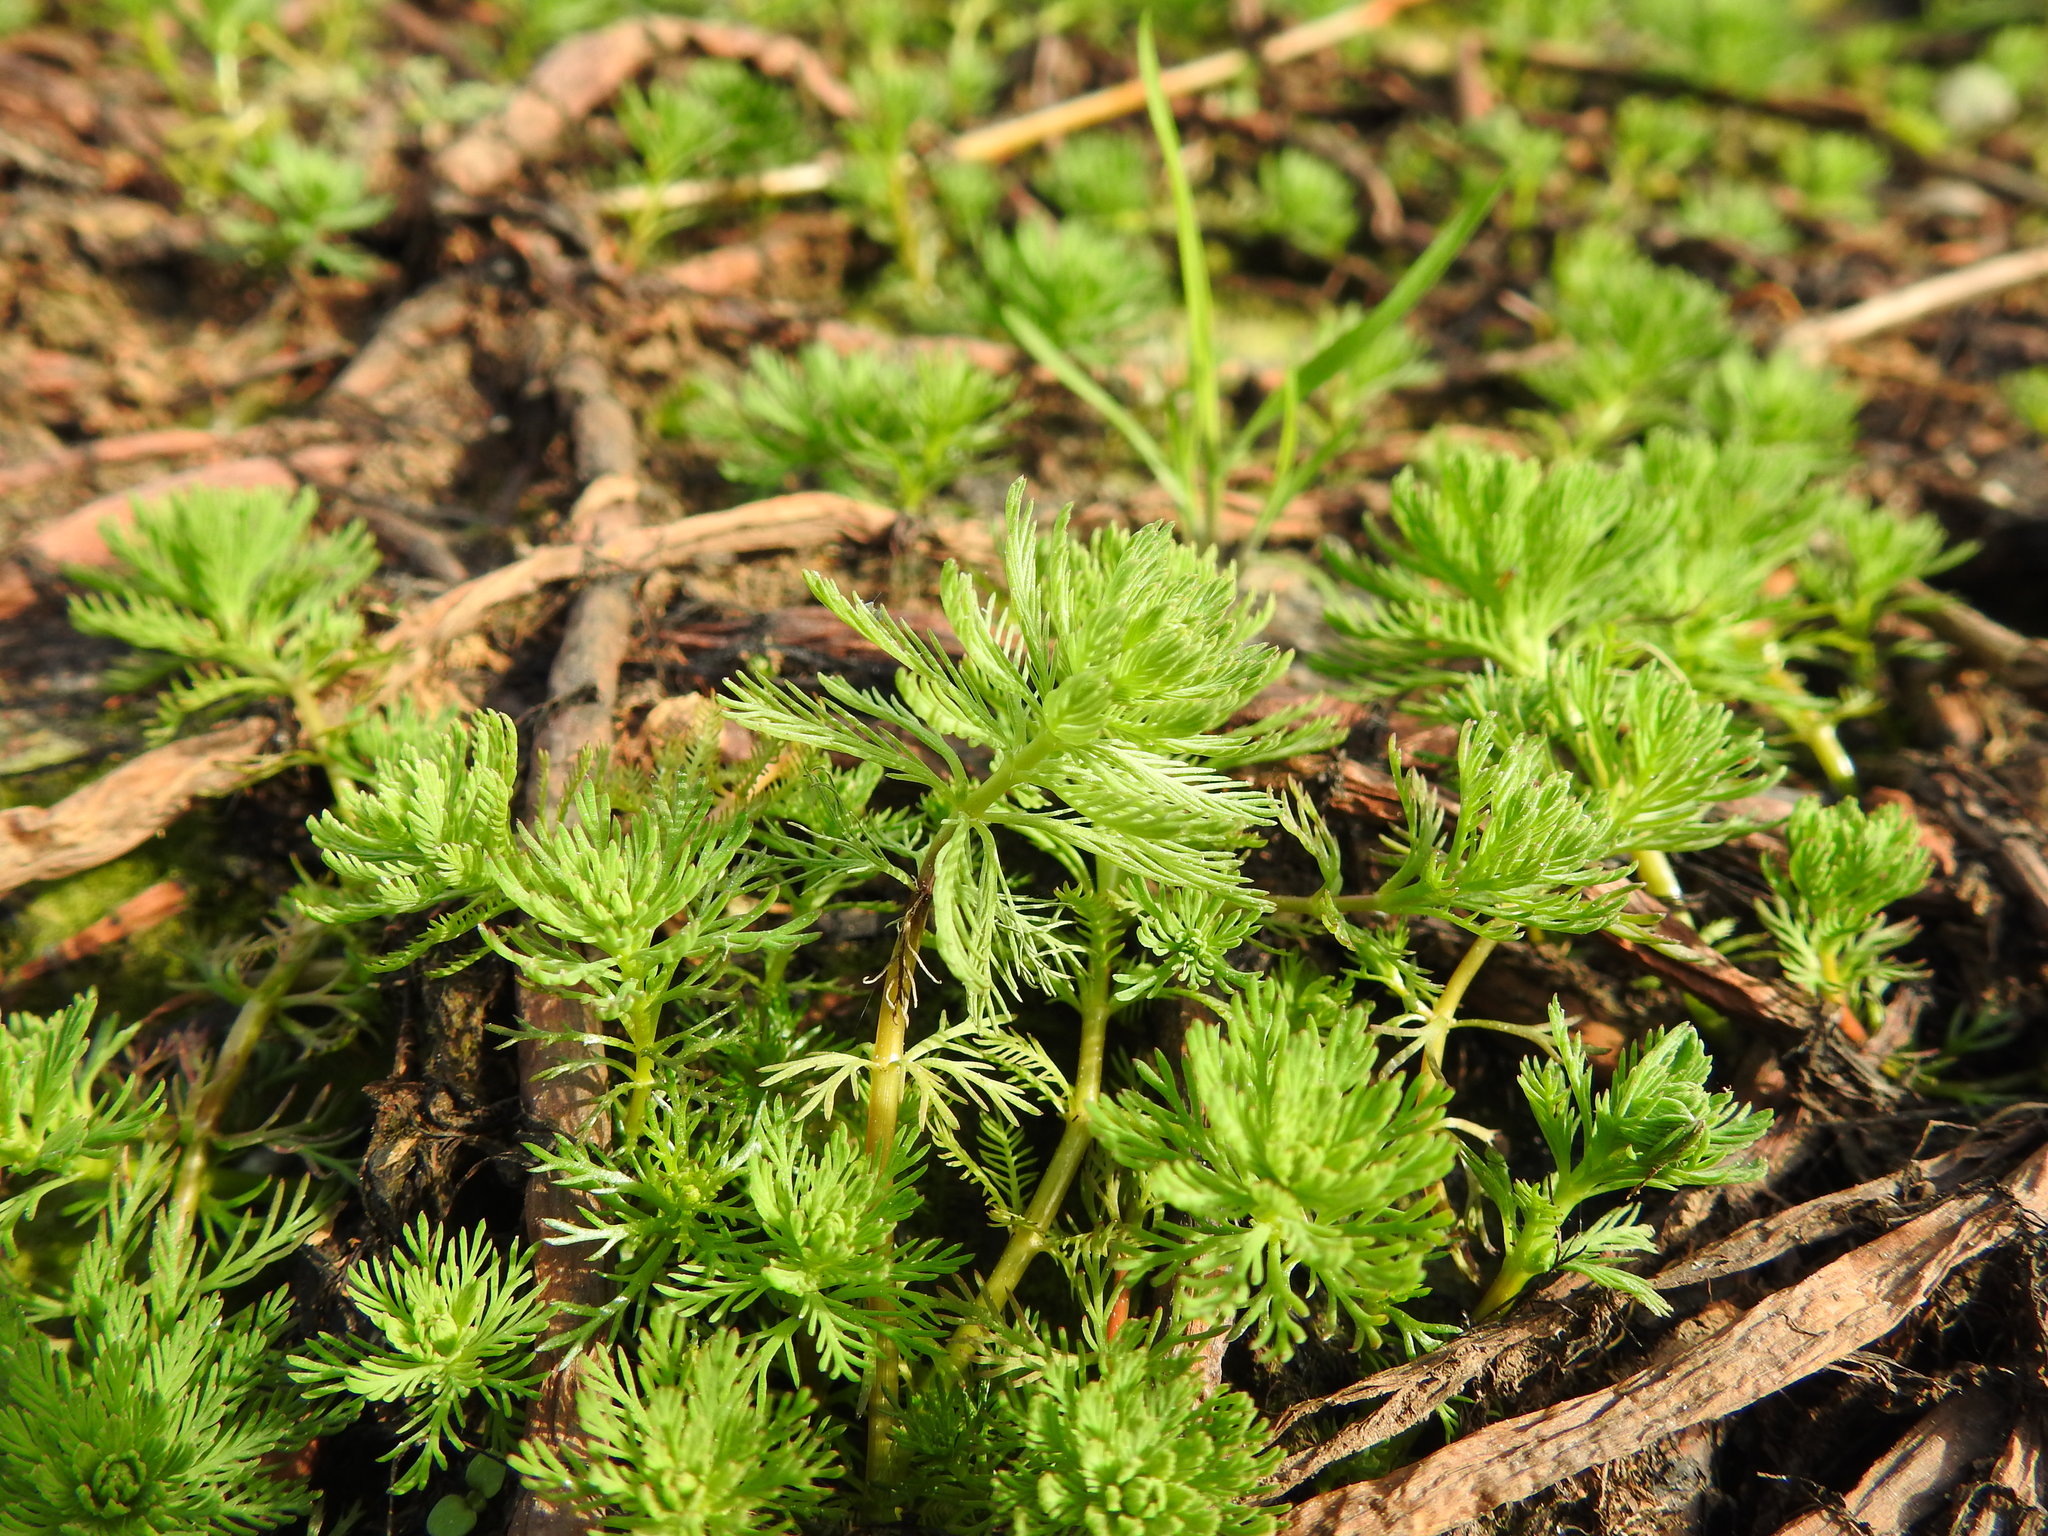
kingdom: Plantae
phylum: Tracheophyta
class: Magnoliopsida
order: Saxifragales
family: Haloragaceae
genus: Myriophyllum
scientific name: Myriophyllum aquaticum
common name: Parrot's feather
